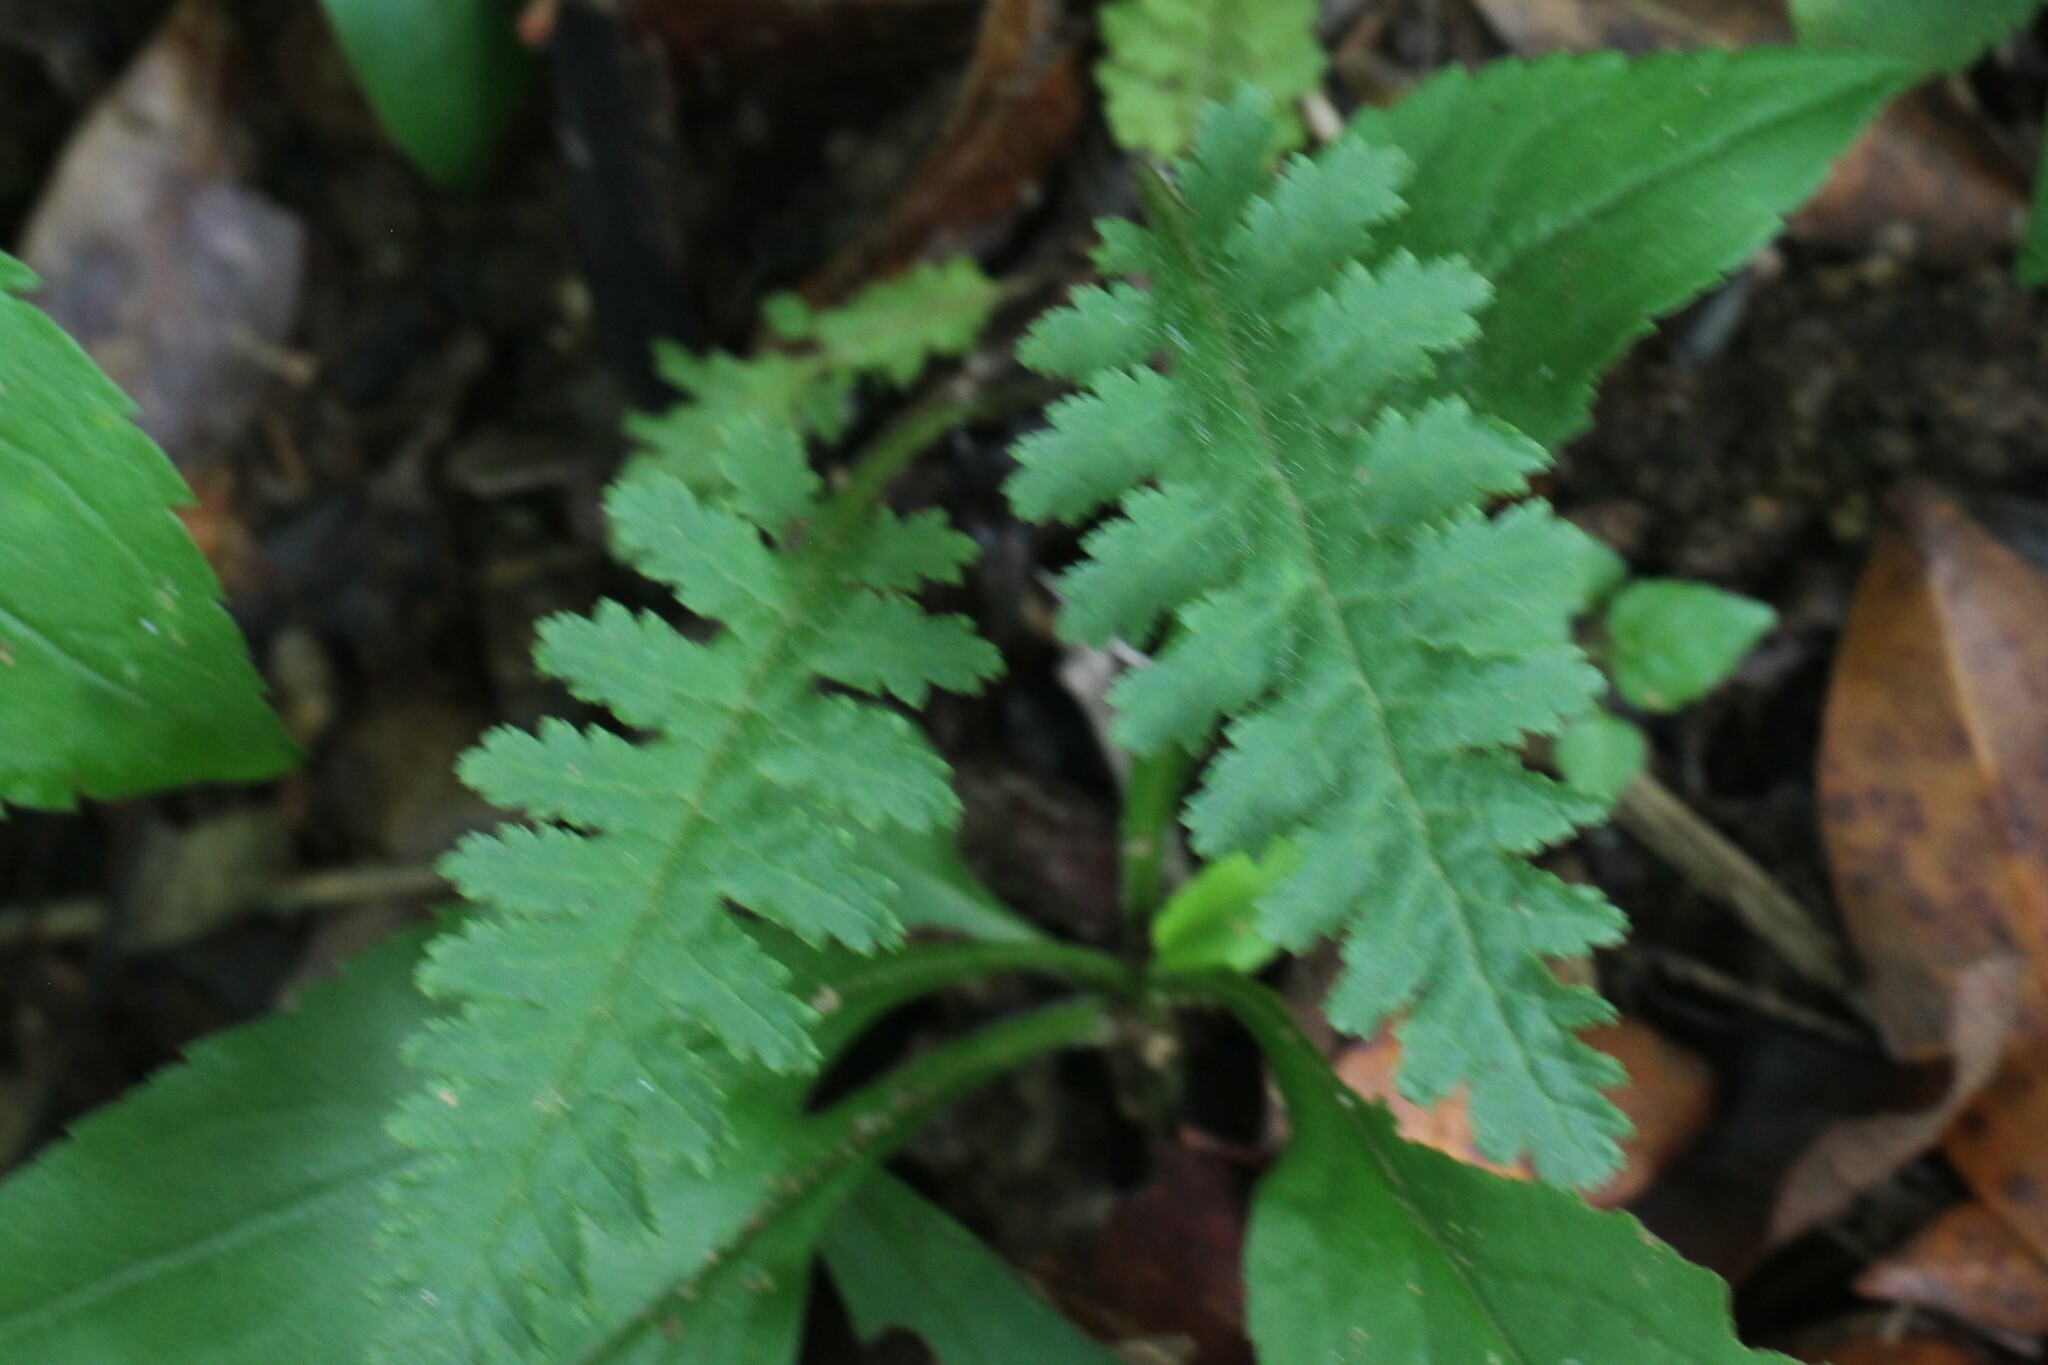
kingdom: Plantae
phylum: Tracheophyta
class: Magnoliopsida
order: Lamiales
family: Orobanchaceae
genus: Pedicularis
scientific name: Pedicularis canadensis
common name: Early lousewort
